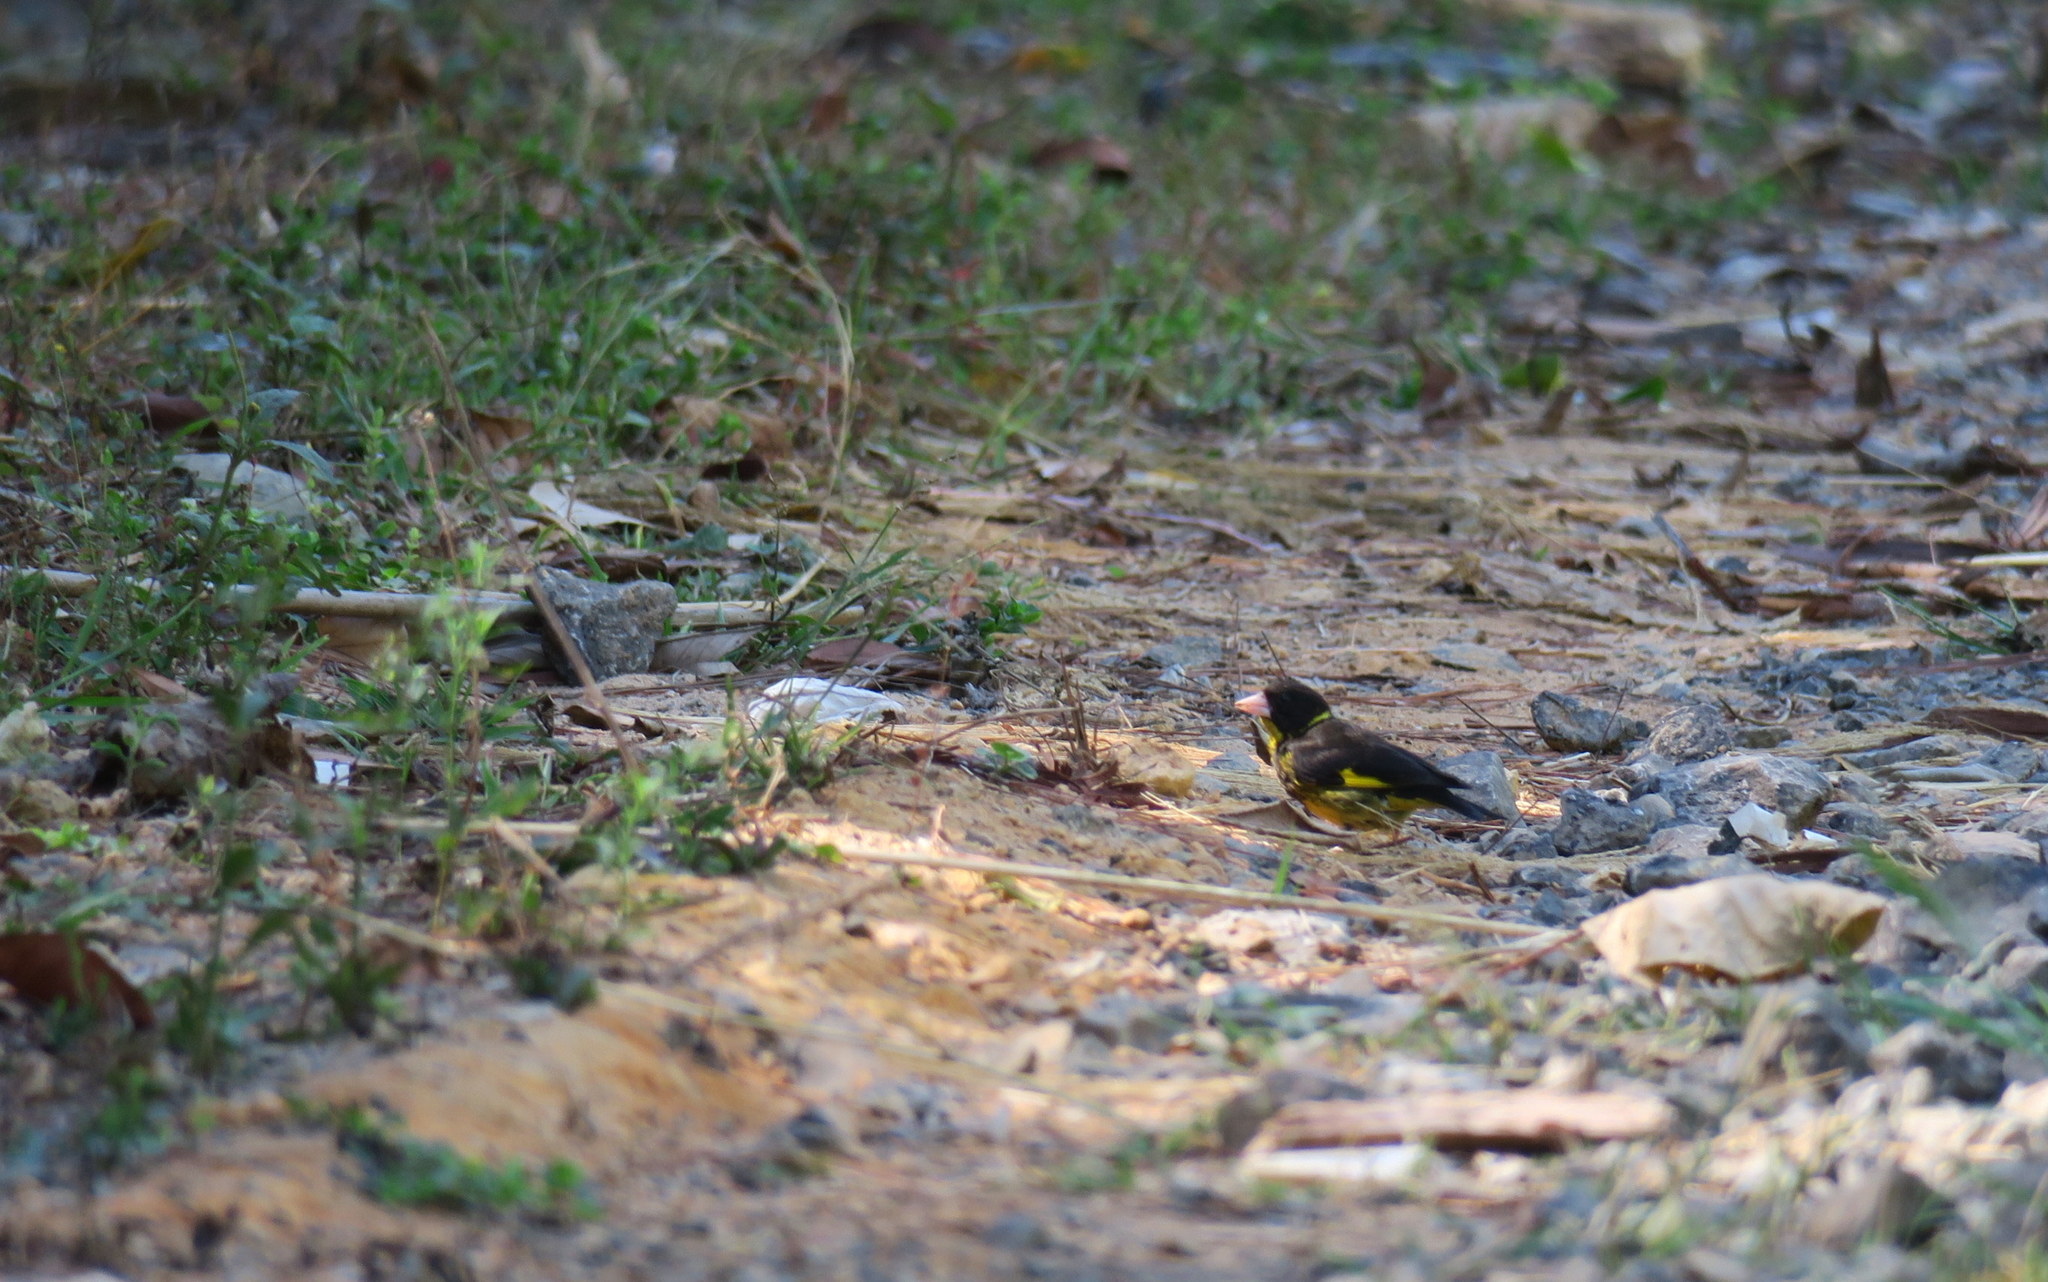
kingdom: Animalia
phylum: Chordata
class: Aves
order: Passeriformes
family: Fringillidae
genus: Chloris
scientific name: Chloris monguilloti
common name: Vietnamese greenfinch
